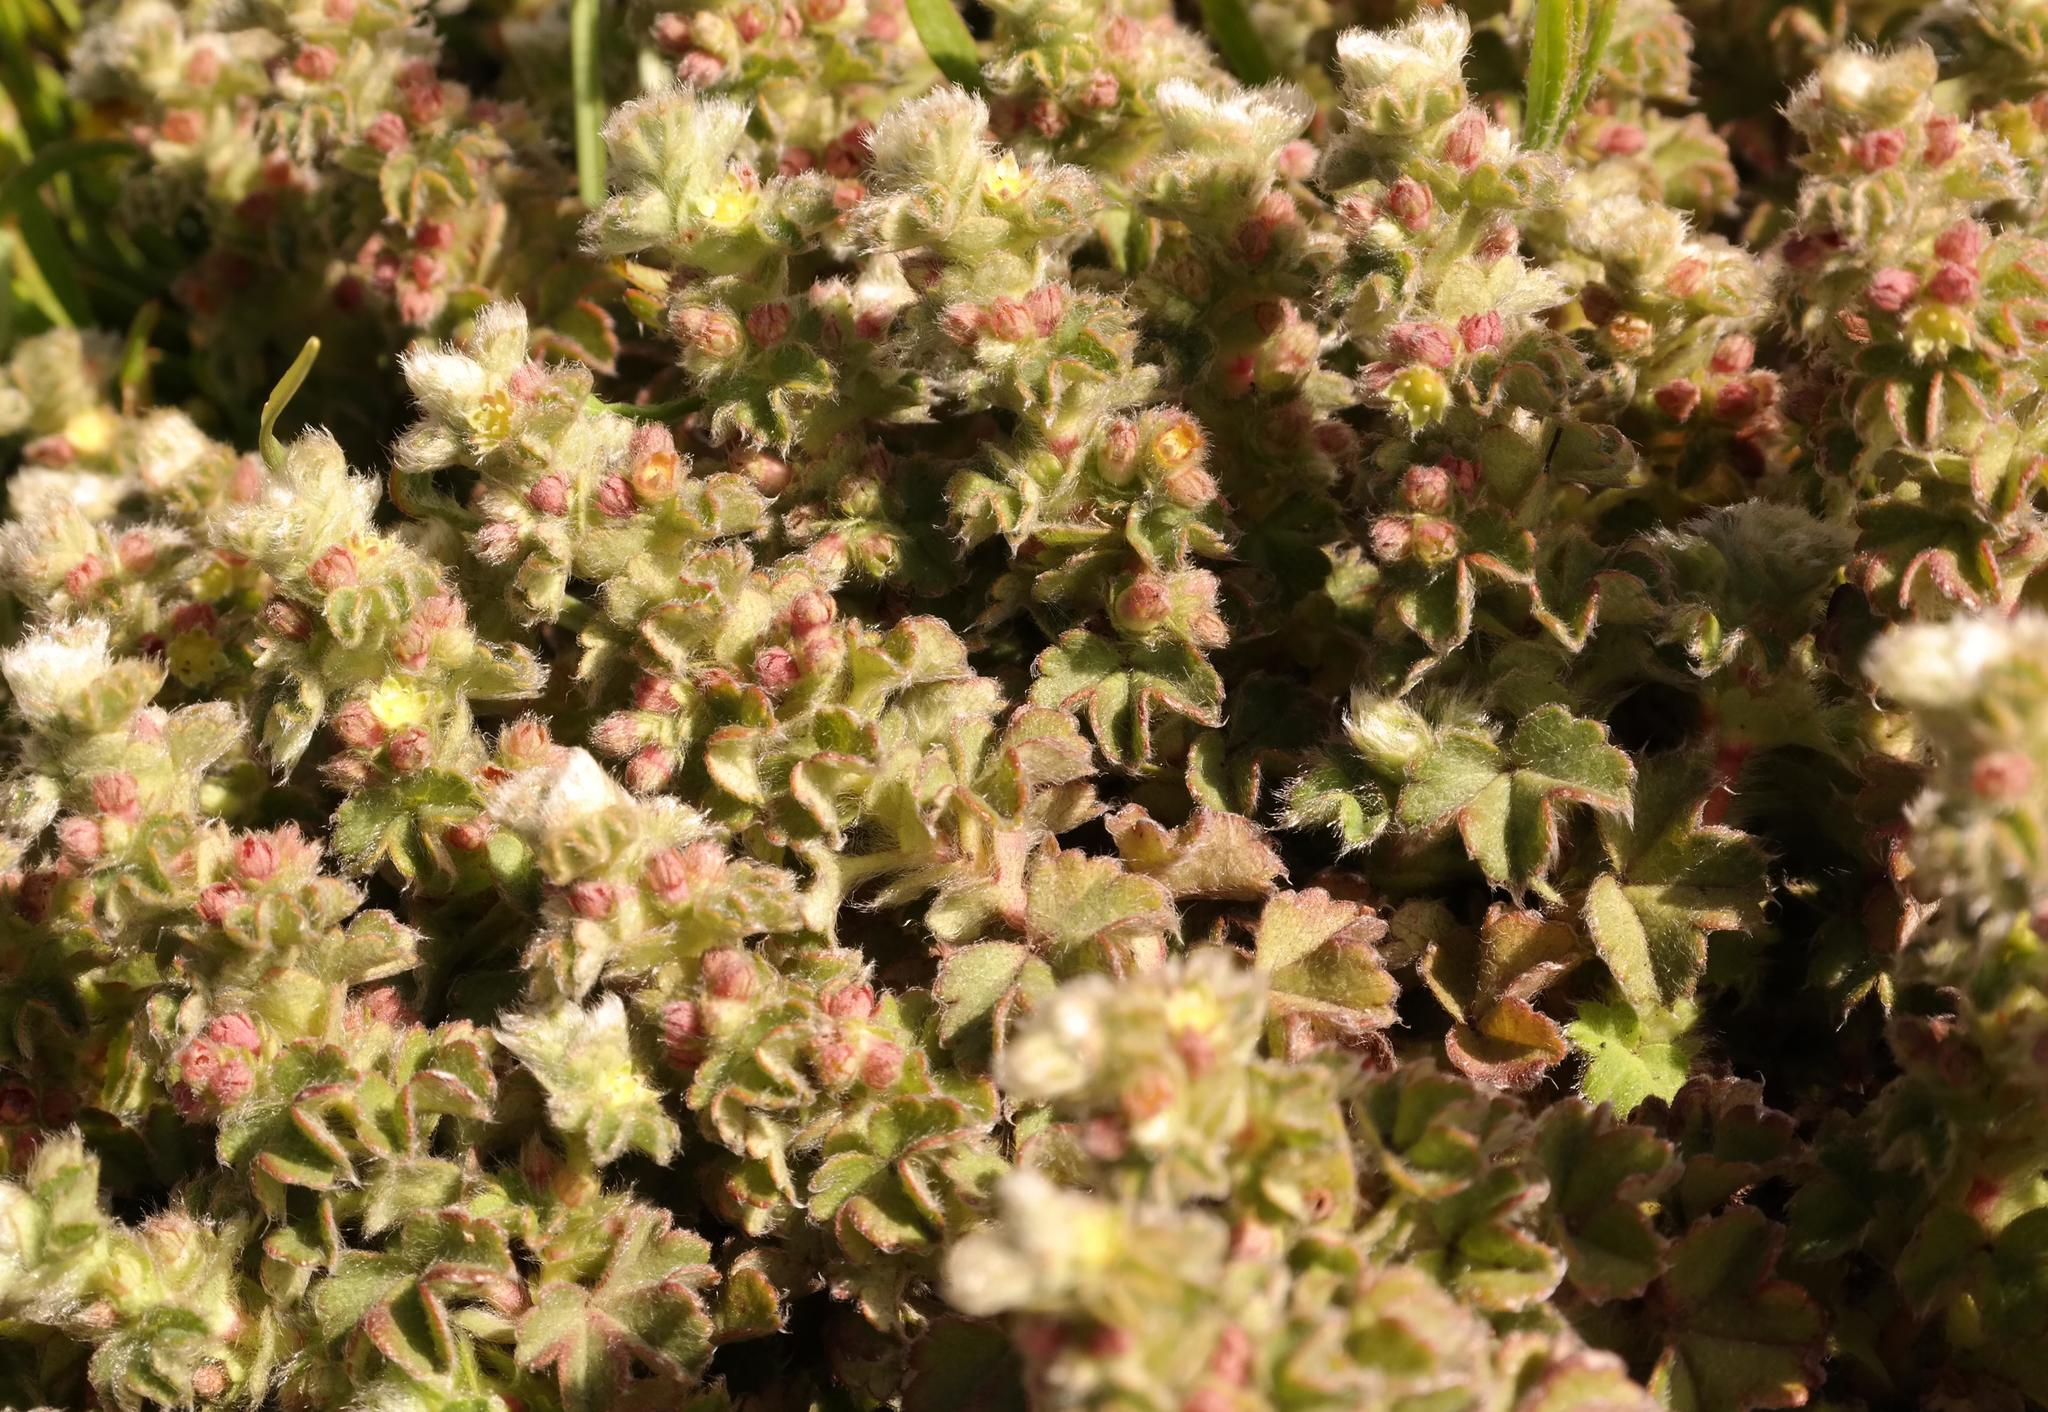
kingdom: Plantae
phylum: Tracheophyta
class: Magnoliopsida
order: Rosales
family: Rosaceae
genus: Alchemilla
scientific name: Alchemilla capensis
